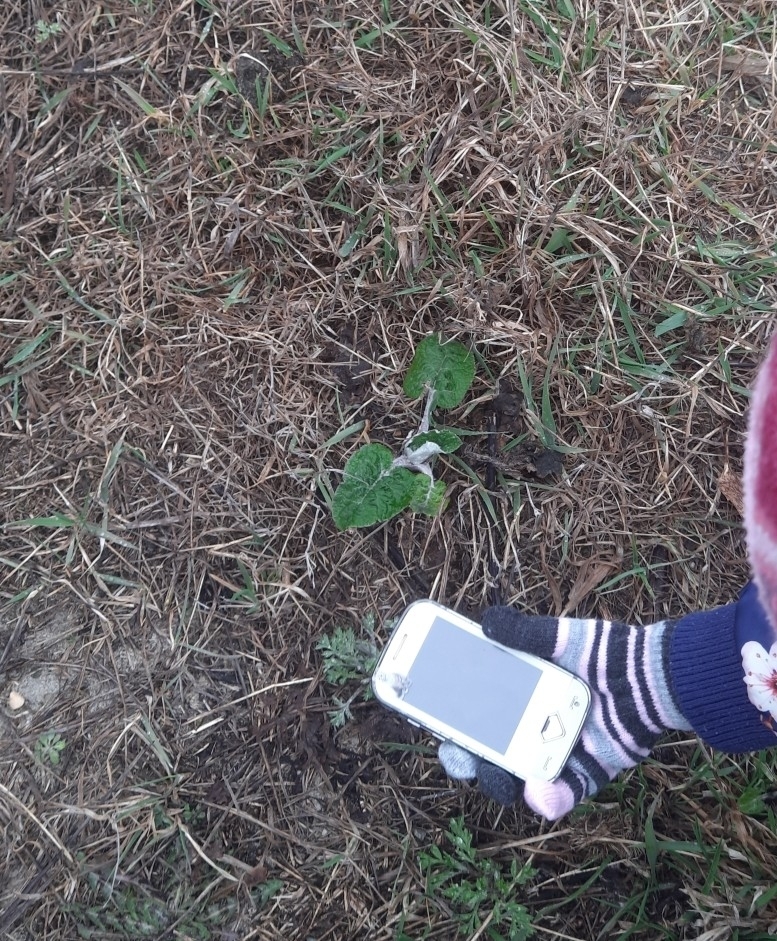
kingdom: Plantae
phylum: Tracheophyta
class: Magnoliopsida
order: Asterales
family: Asteraceae
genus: Arctium
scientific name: Arctium tomentosum
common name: Woolly burdock
